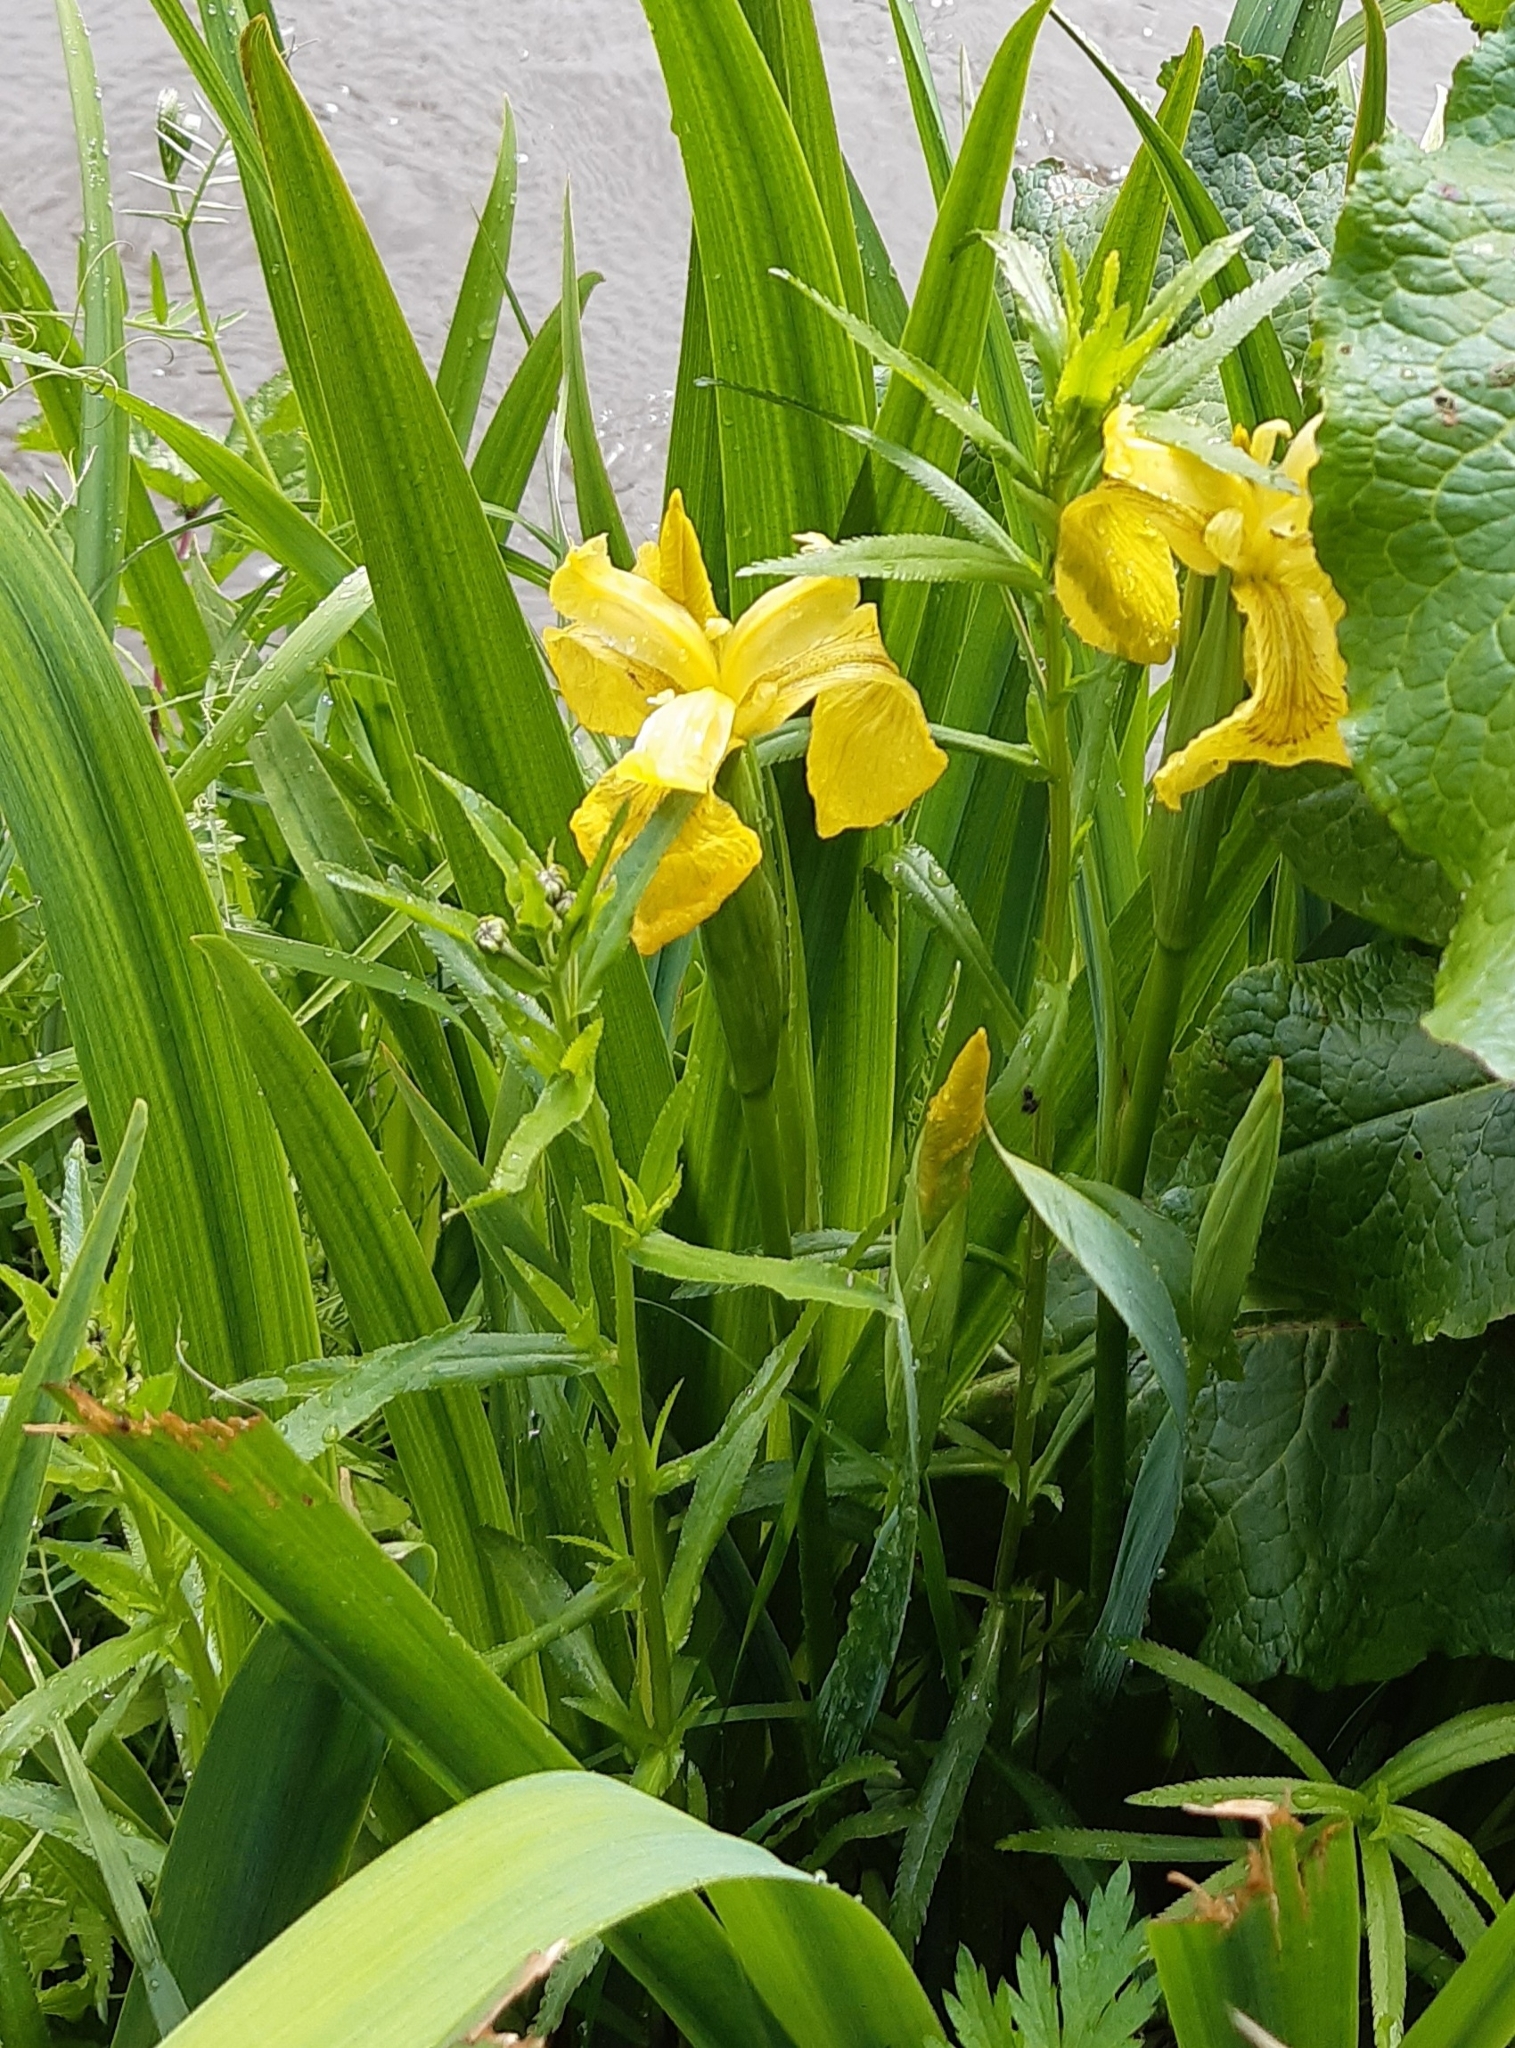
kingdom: Plantae
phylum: Tracheophyta
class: Liliopsida
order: Asparagales
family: Iridaceae
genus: Iris
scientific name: Iris pseudacorus
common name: Yellow flag
